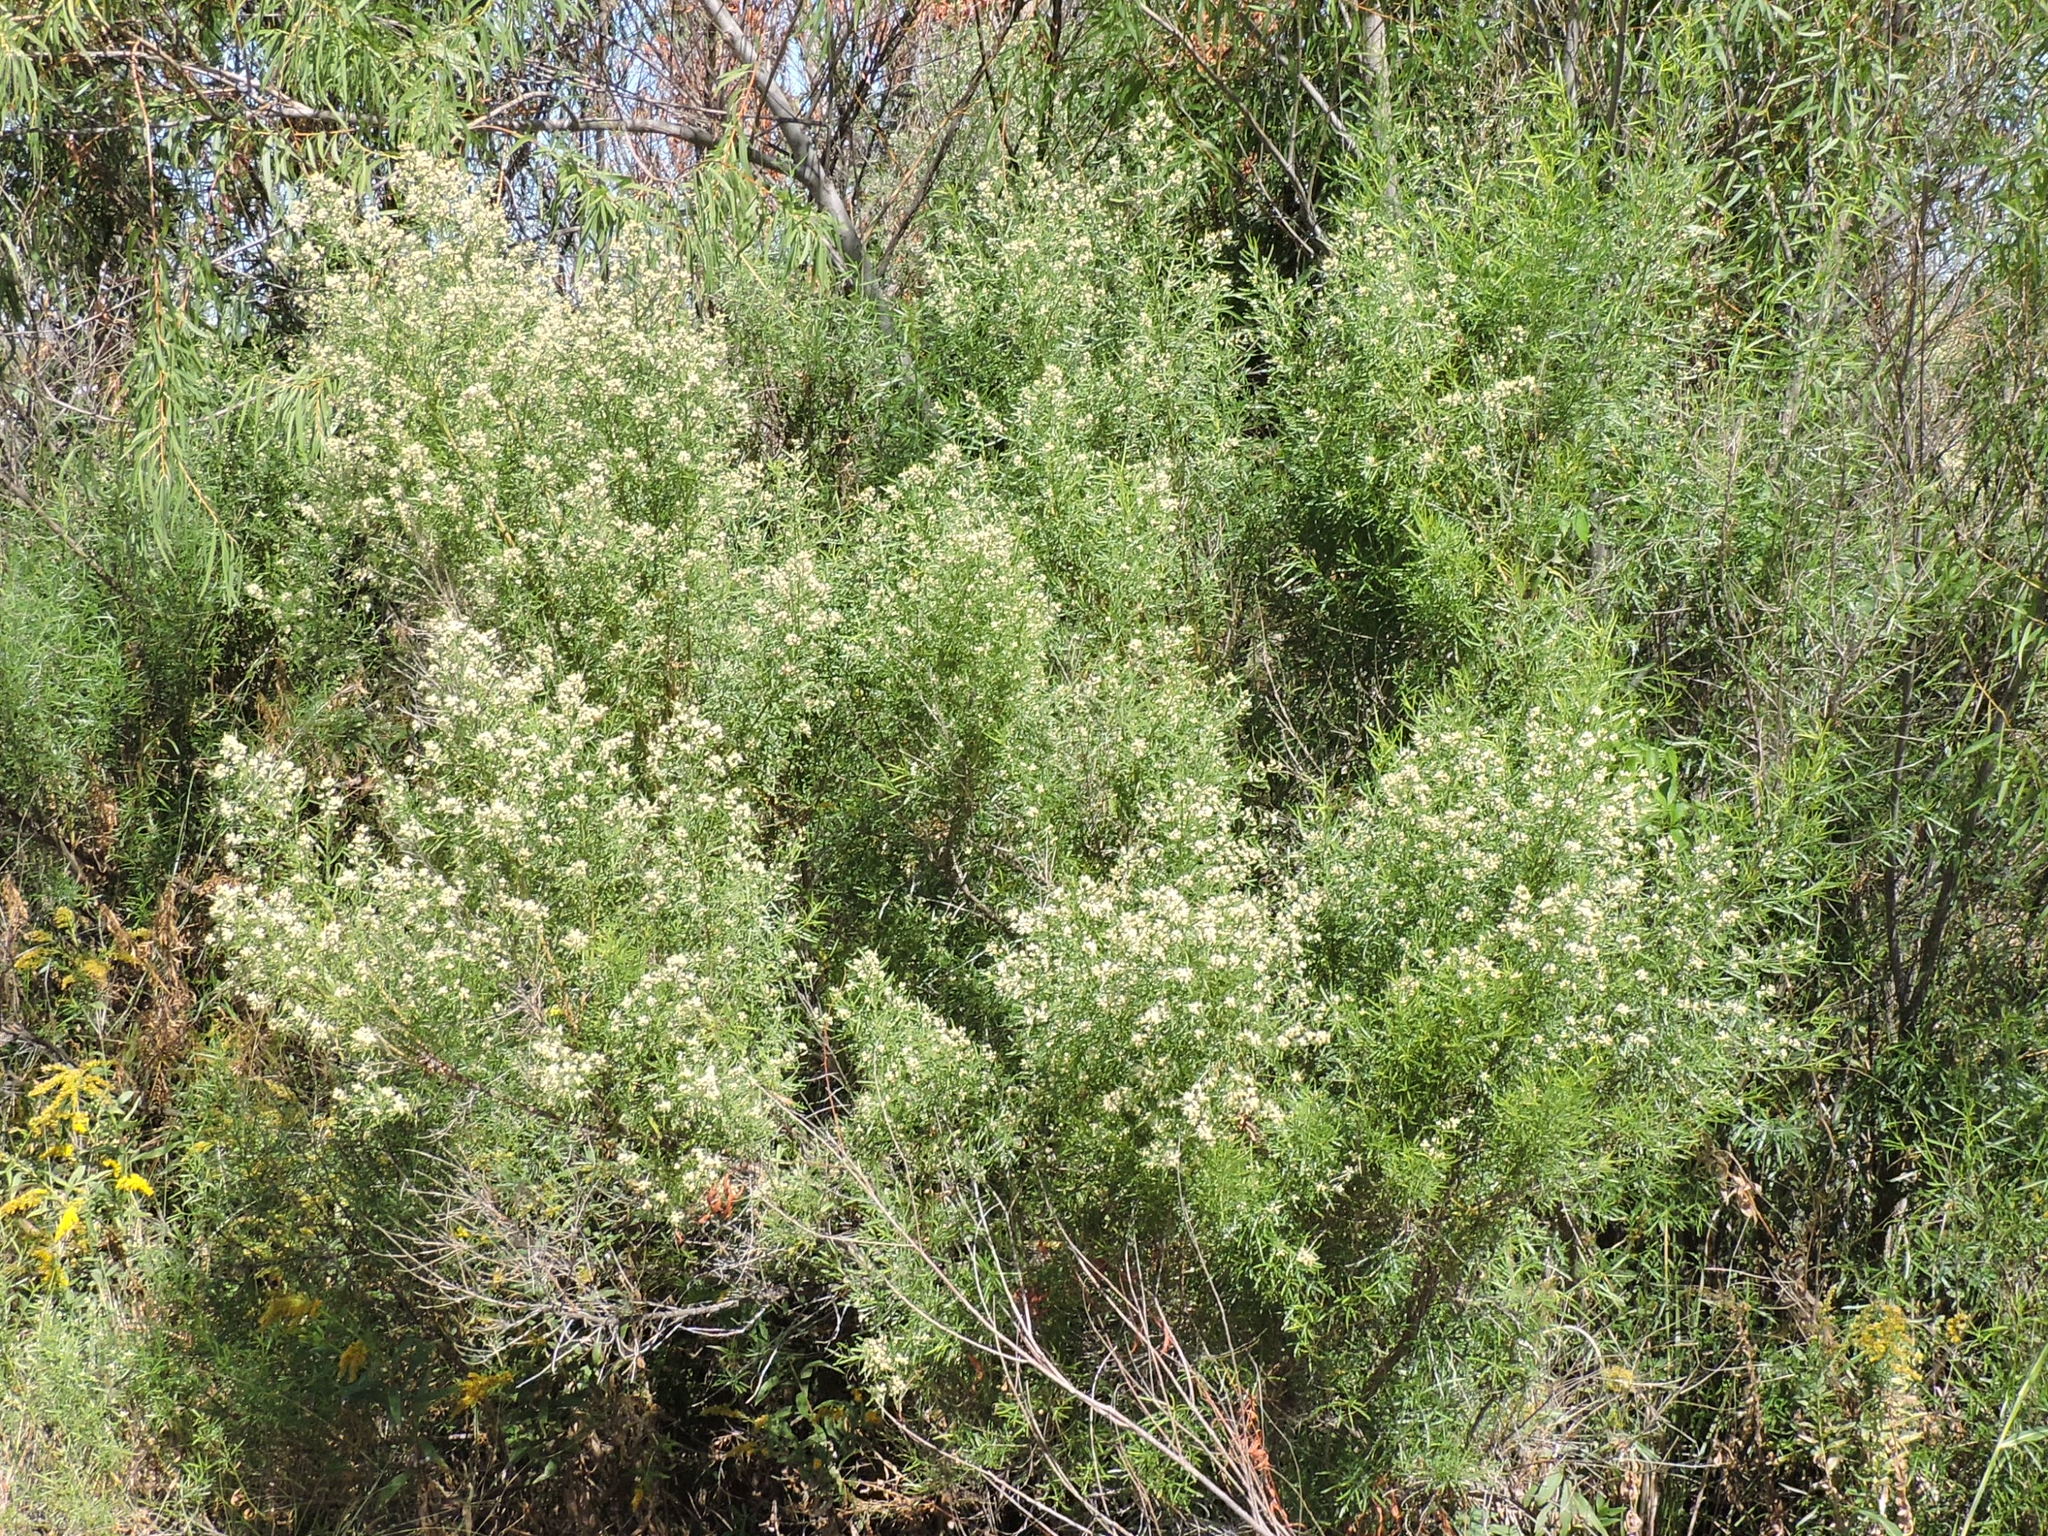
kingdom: Plantae
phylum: Tracheophyta
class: Magnoliopsida
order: Asterales
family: Asteraceae
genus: Baccharis
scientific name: Baccharis neglecta
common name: Roosevelt-weed
